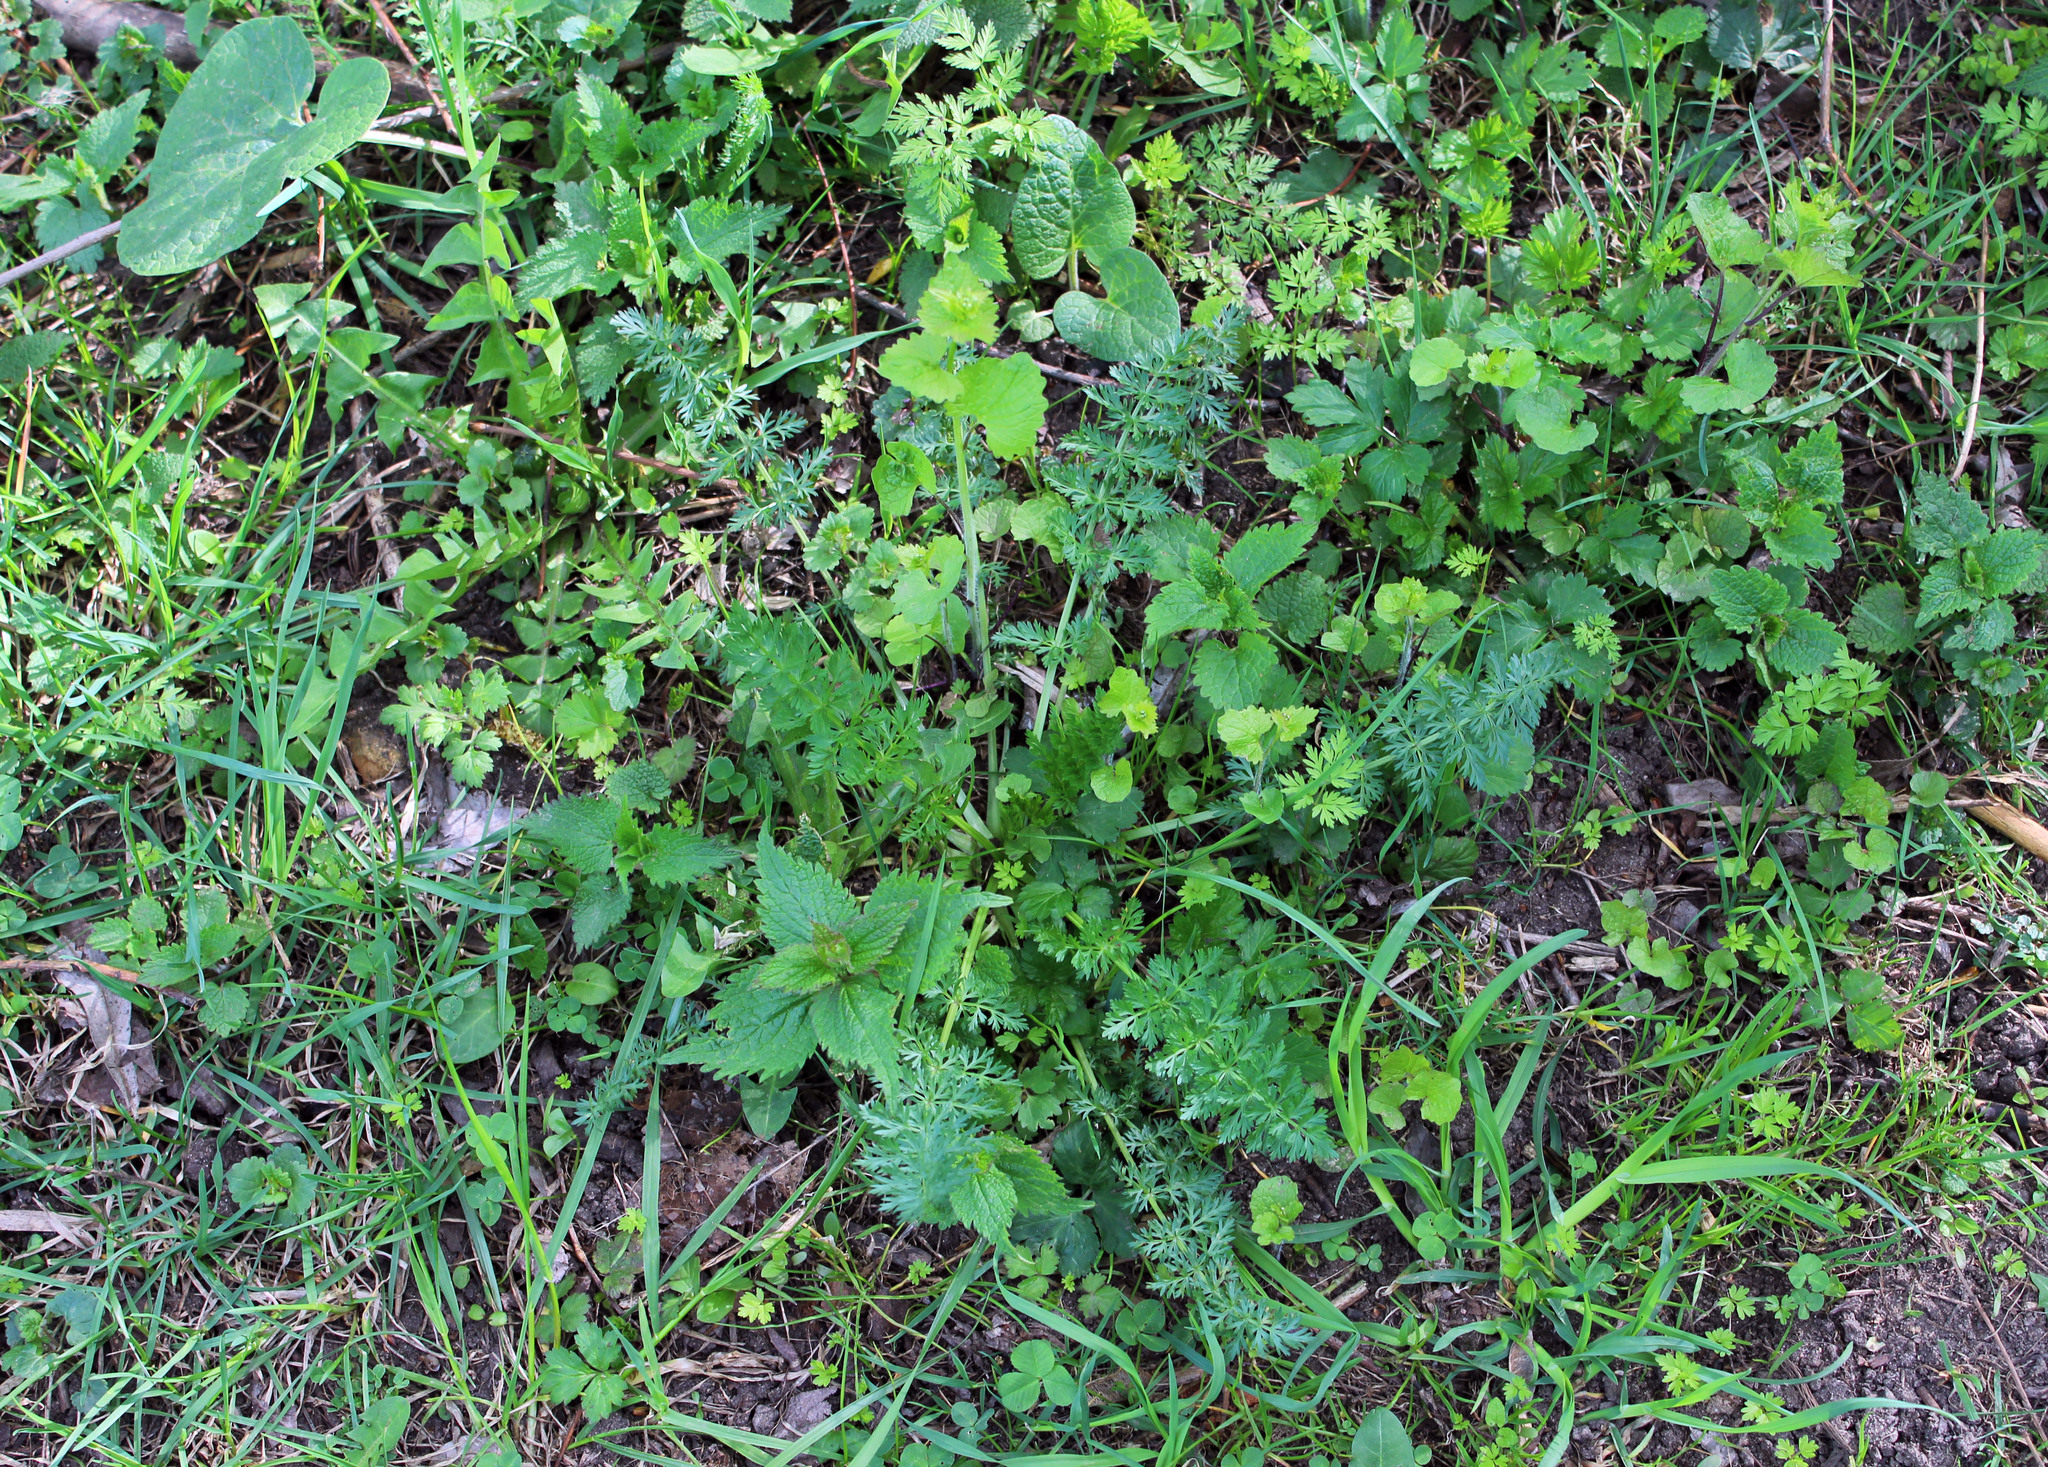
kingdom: Plantae
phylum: Tracheophyta
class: Magnoliopsida
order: Apiales
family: Apiaceae
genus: Carum
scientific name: Carum carvi
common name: Caraway
